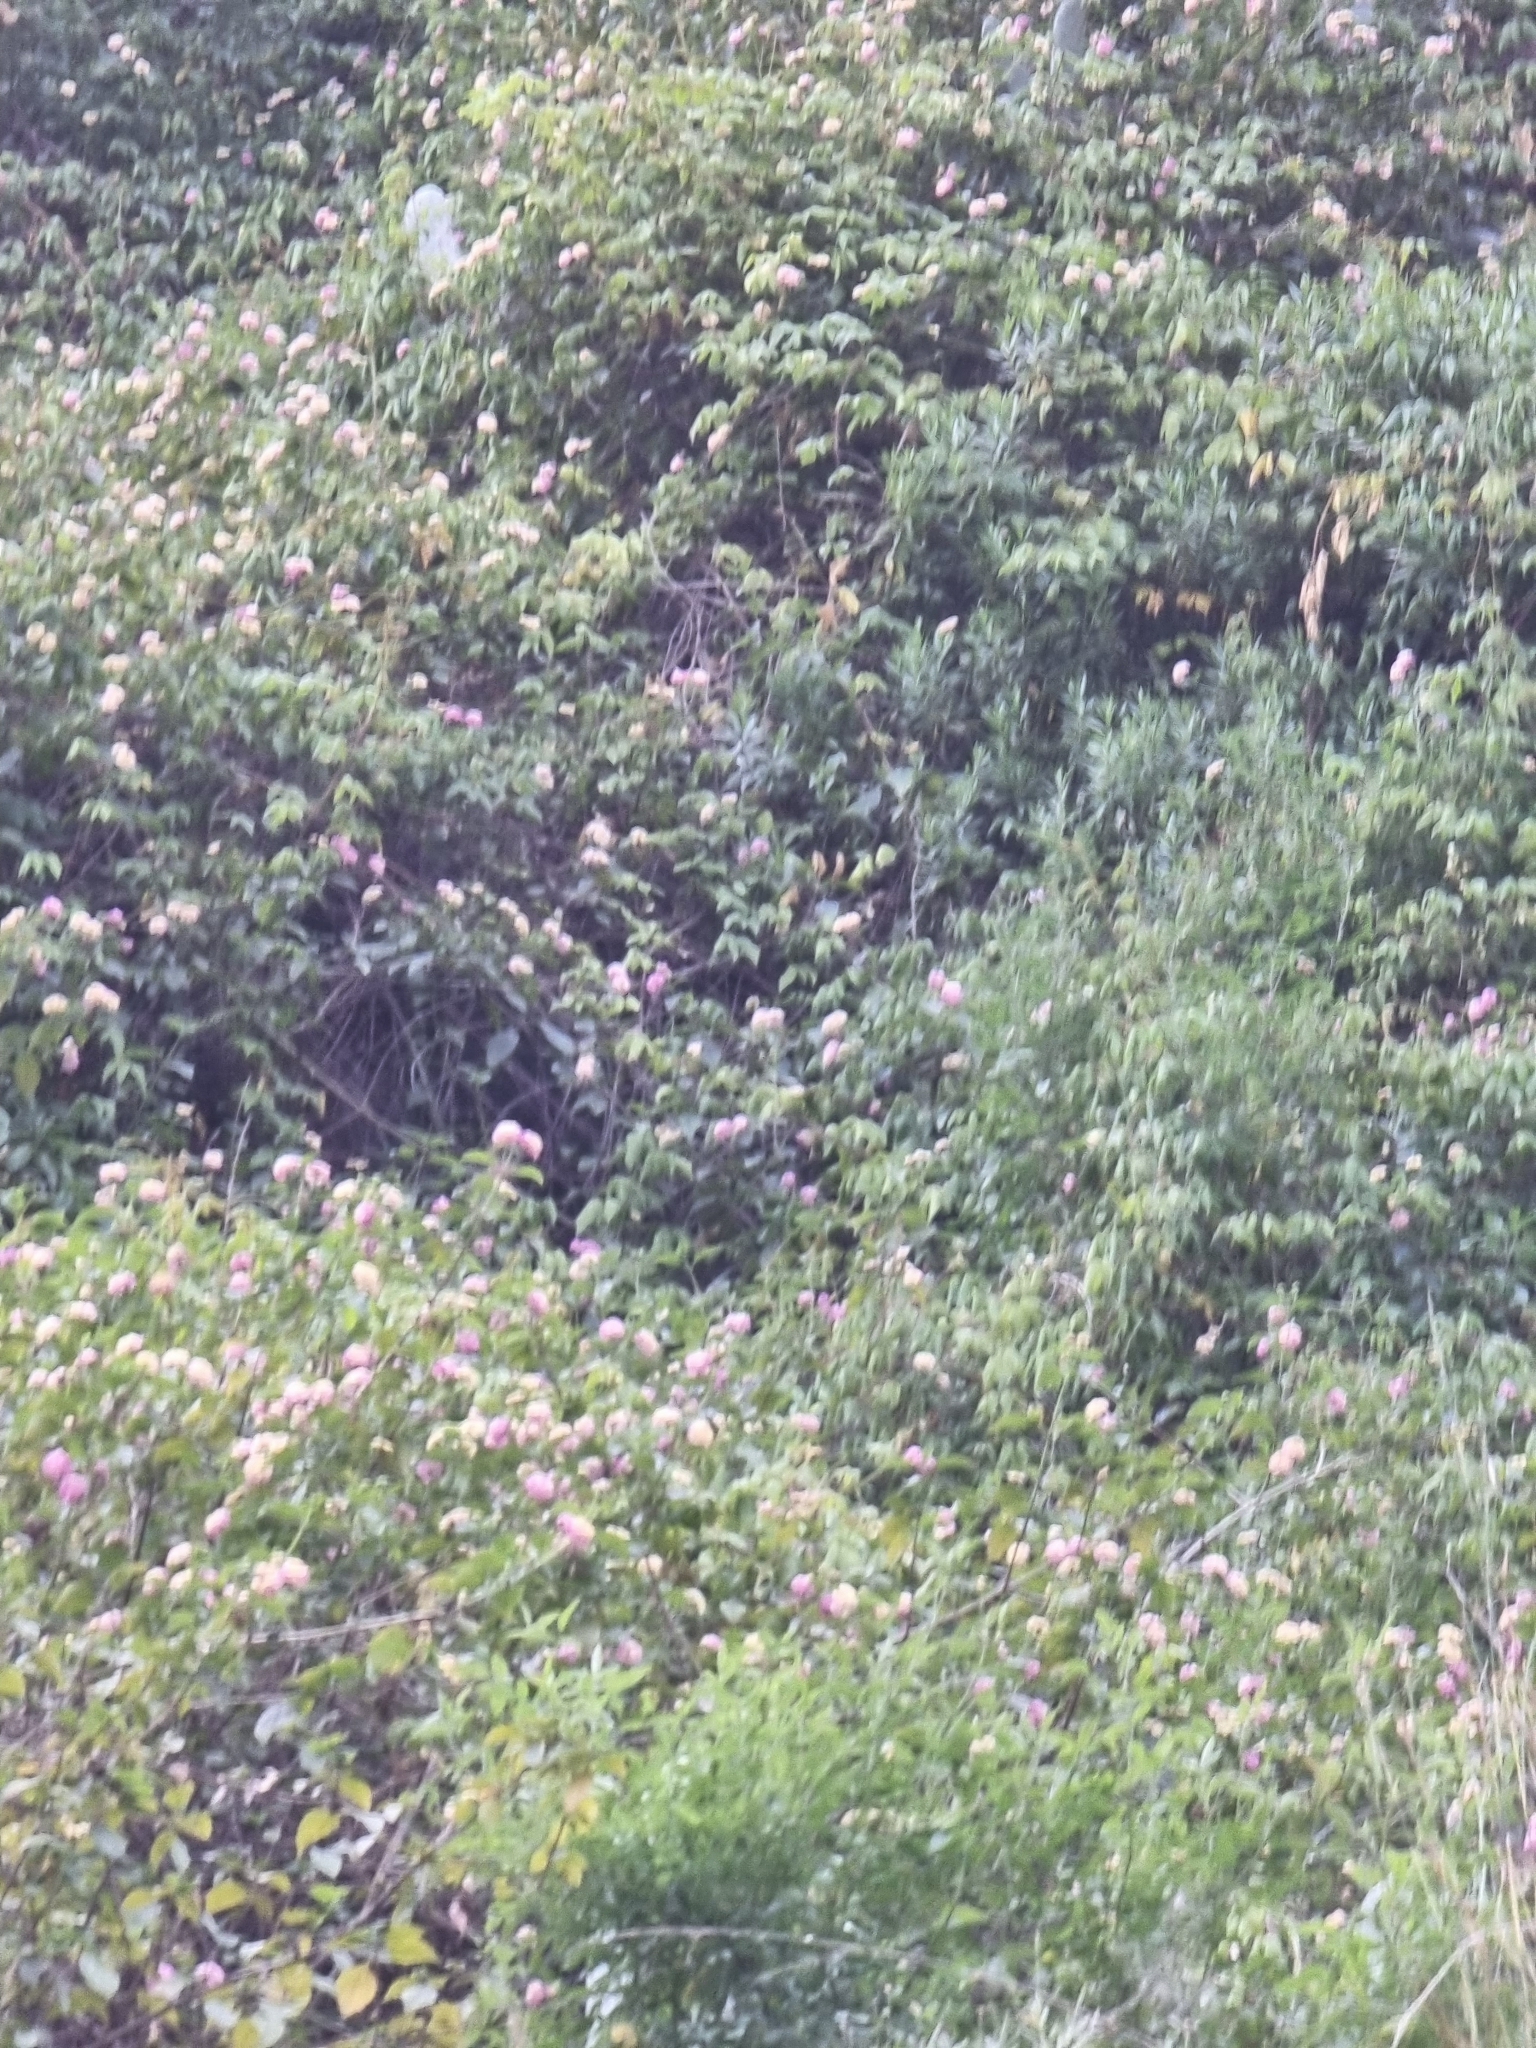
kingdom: Plantae
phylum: Tracheophyta
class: Magnoliopsida
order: Lamiales
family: Verbenaceae
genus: Lantana
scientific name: Lantana camara
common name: Lantana
